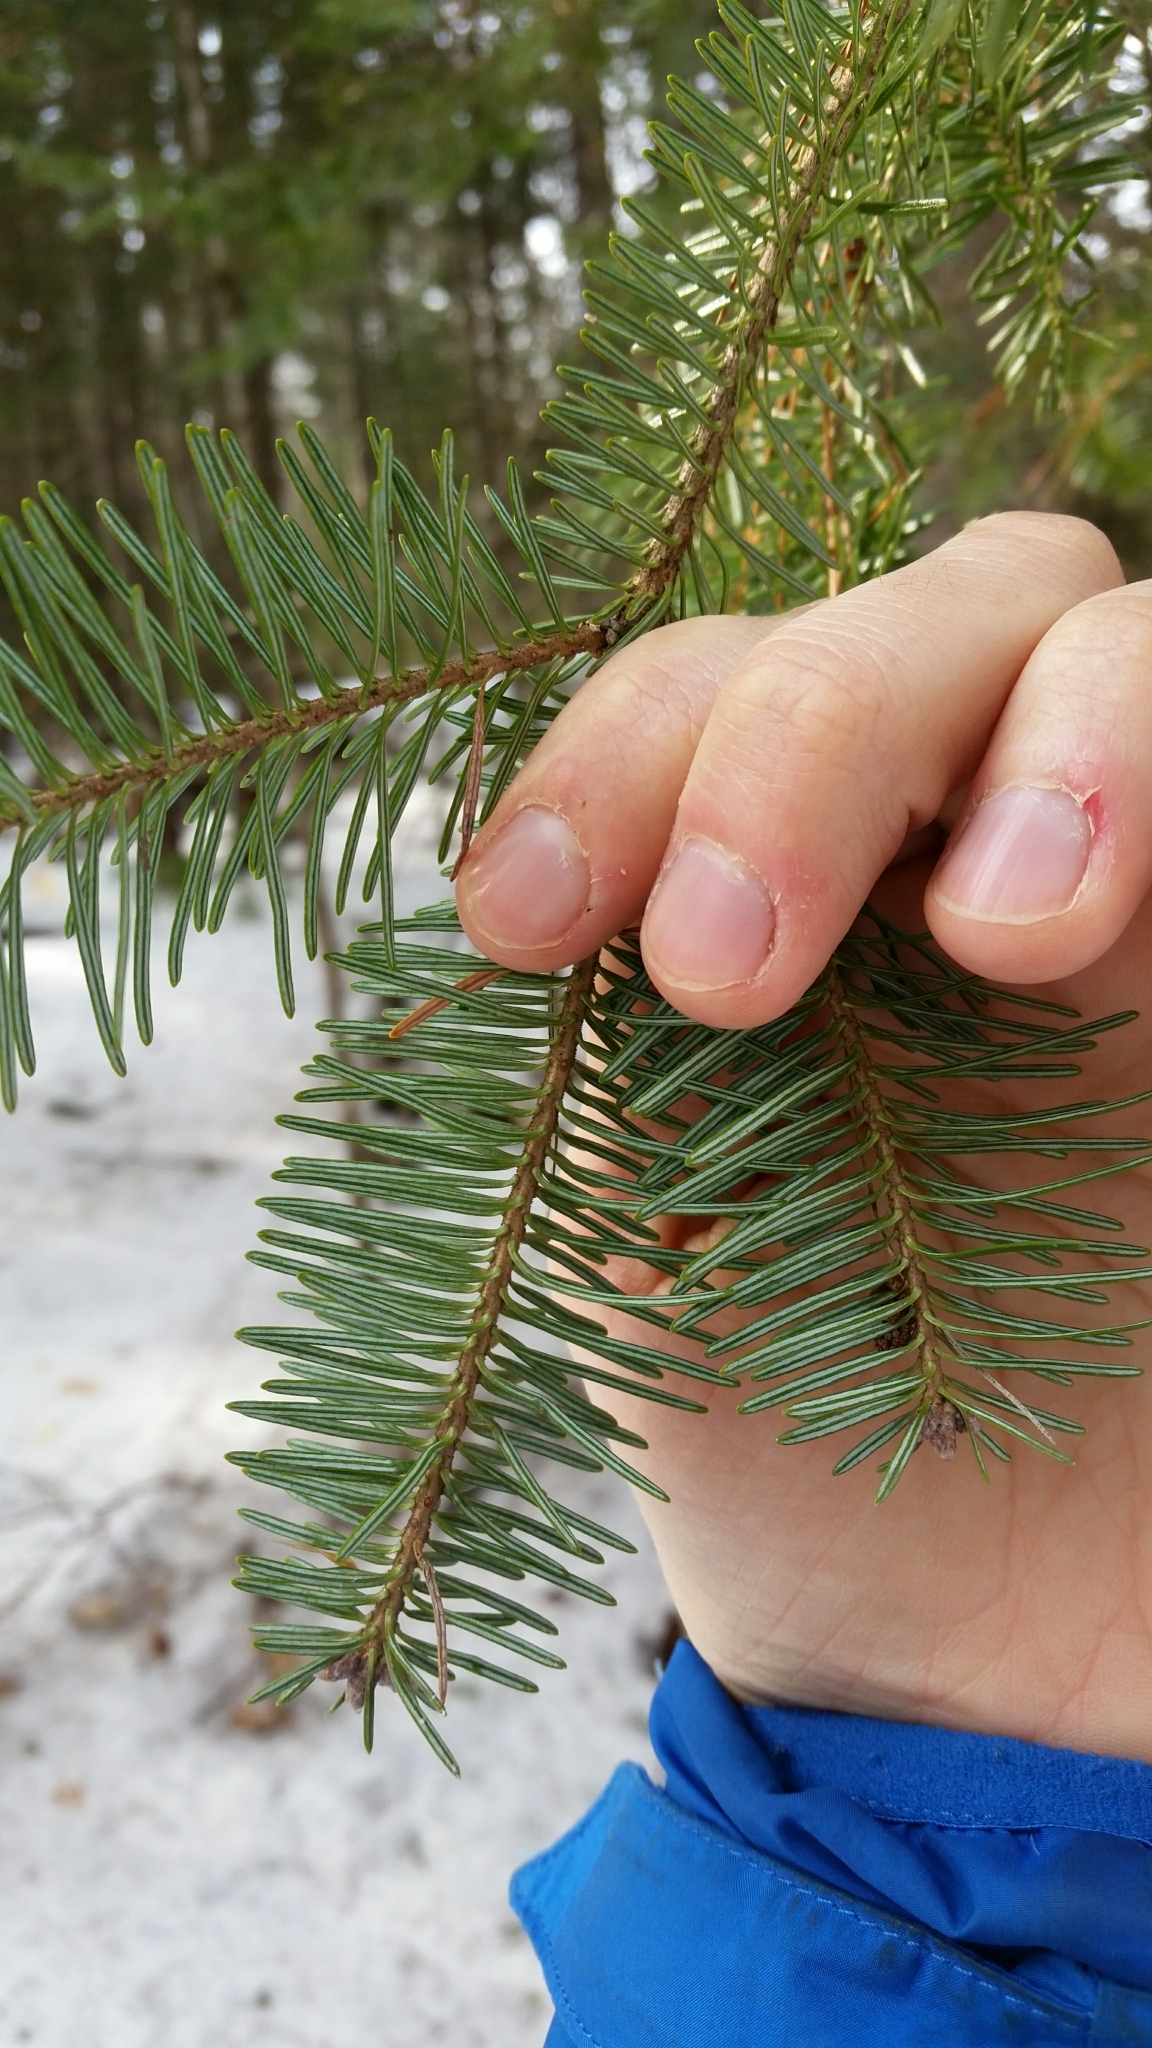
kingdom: Plantae
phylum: Tracheophyta
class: Pinopsida
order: Pinales
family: Pinaceae
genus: Abies
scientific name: Abies balsamea
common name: Balsam fir
